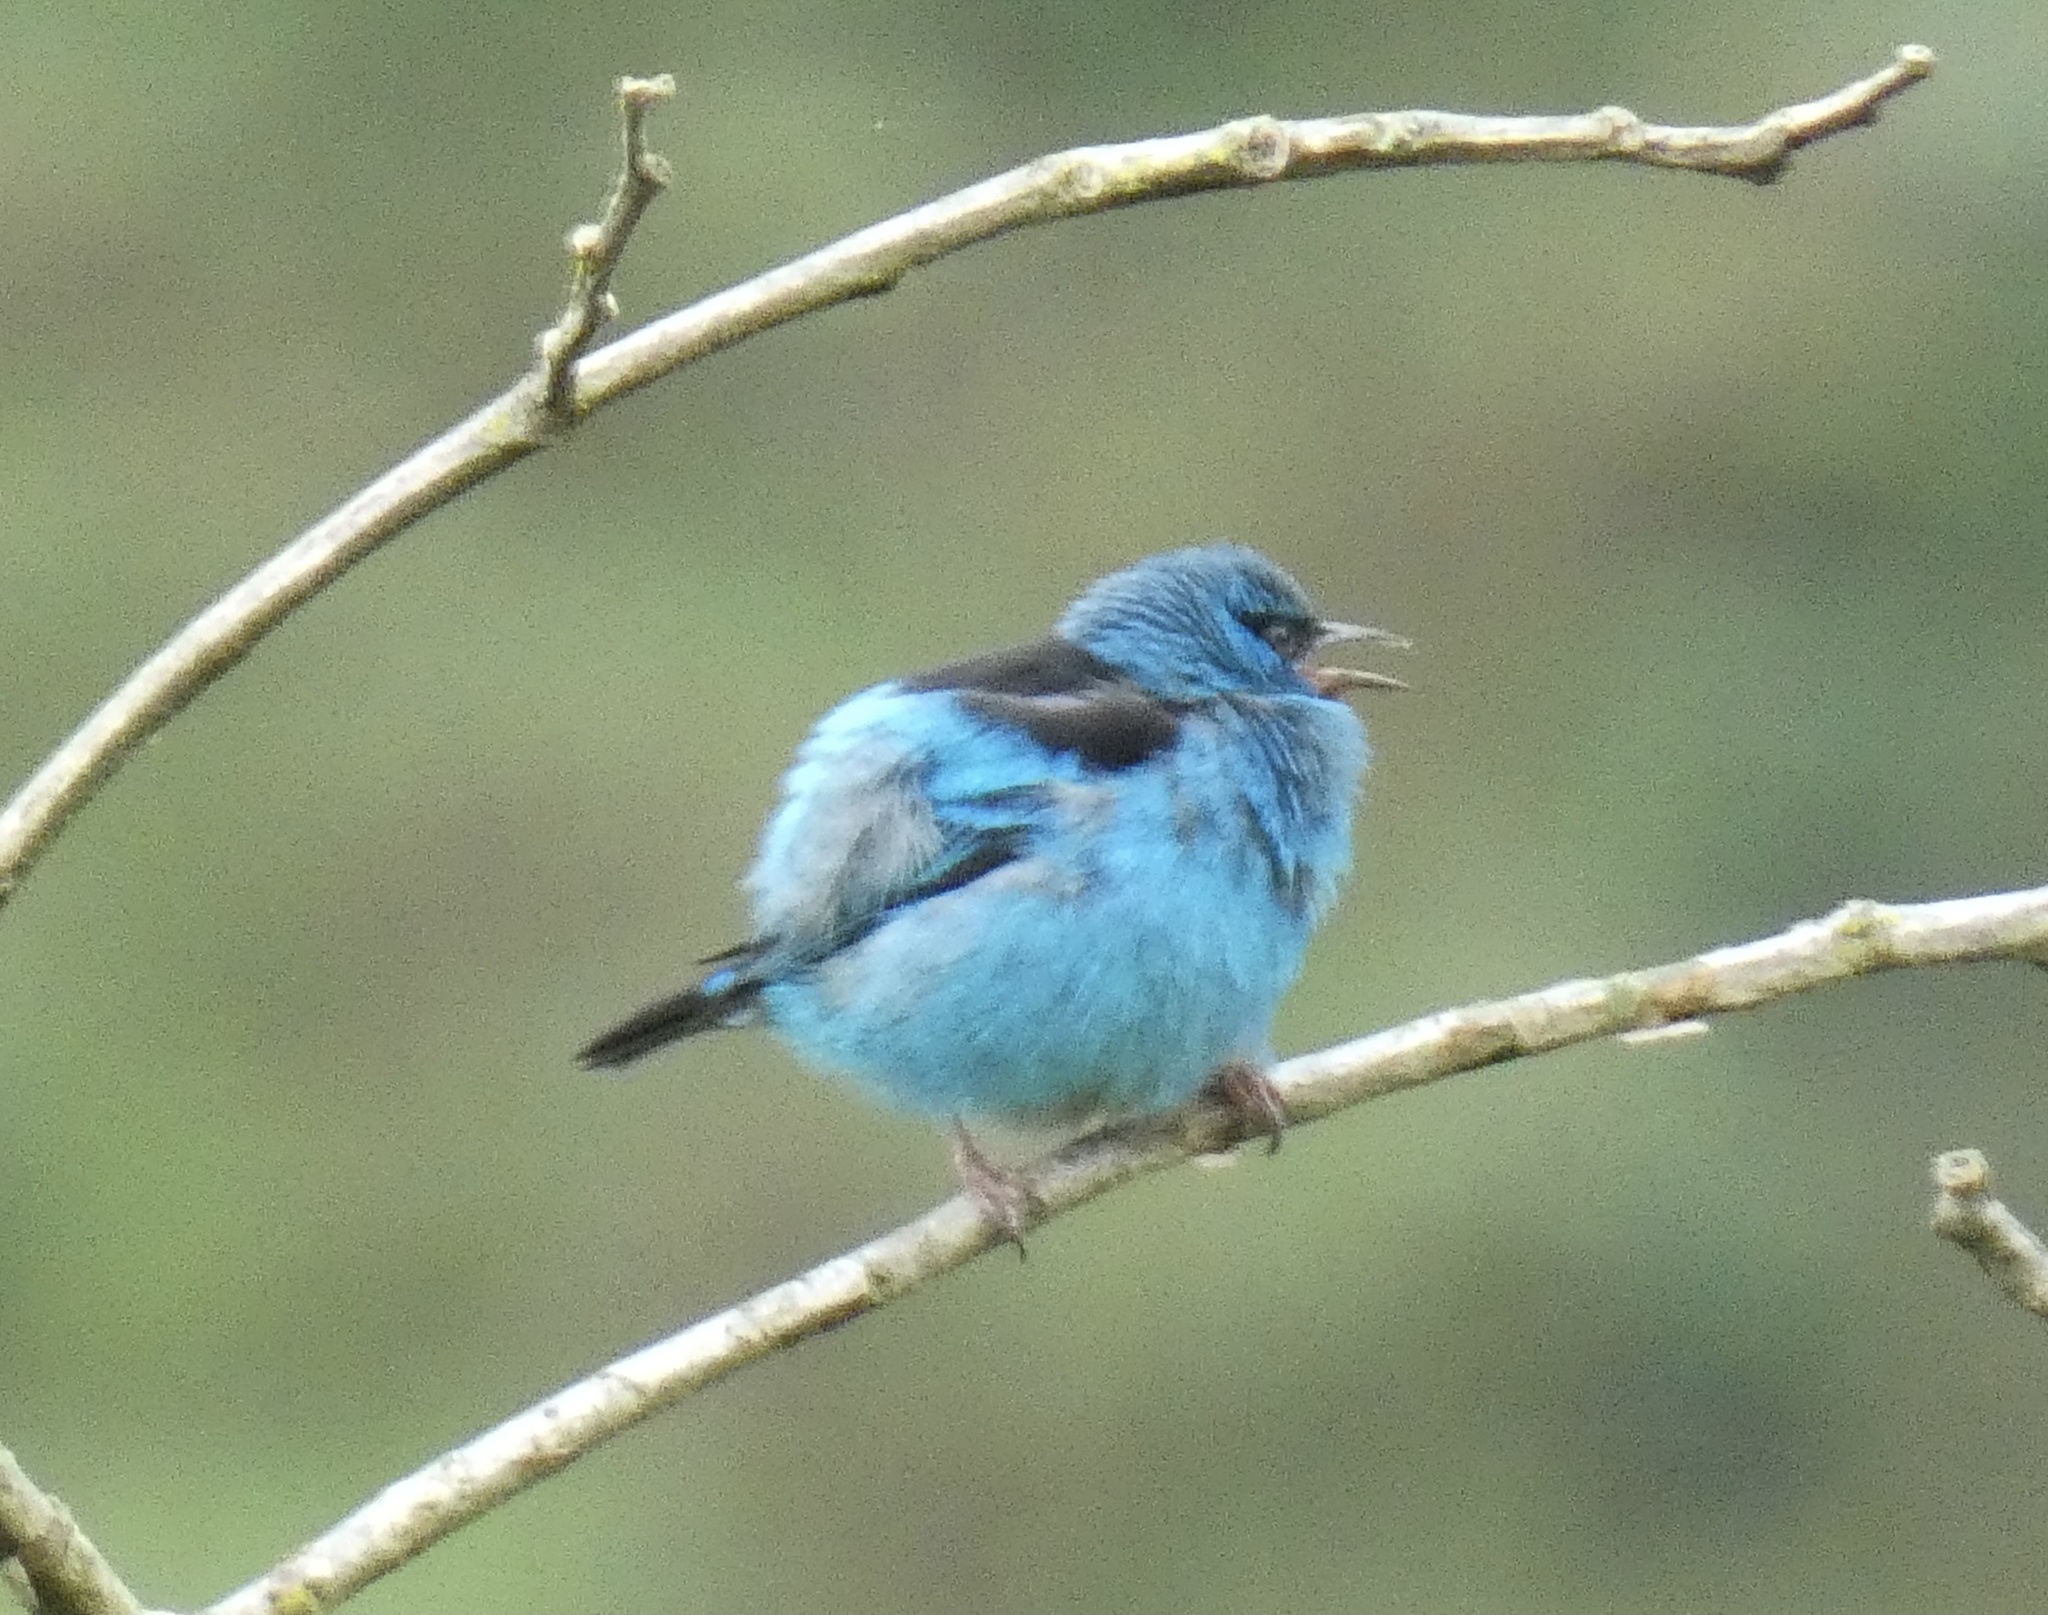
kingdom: Animalia
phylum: Chordata
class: Aves
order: Passeriformes
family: Thraupidae
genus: Dacnis
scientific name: Dacnis cayana
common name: Blue dacnis
